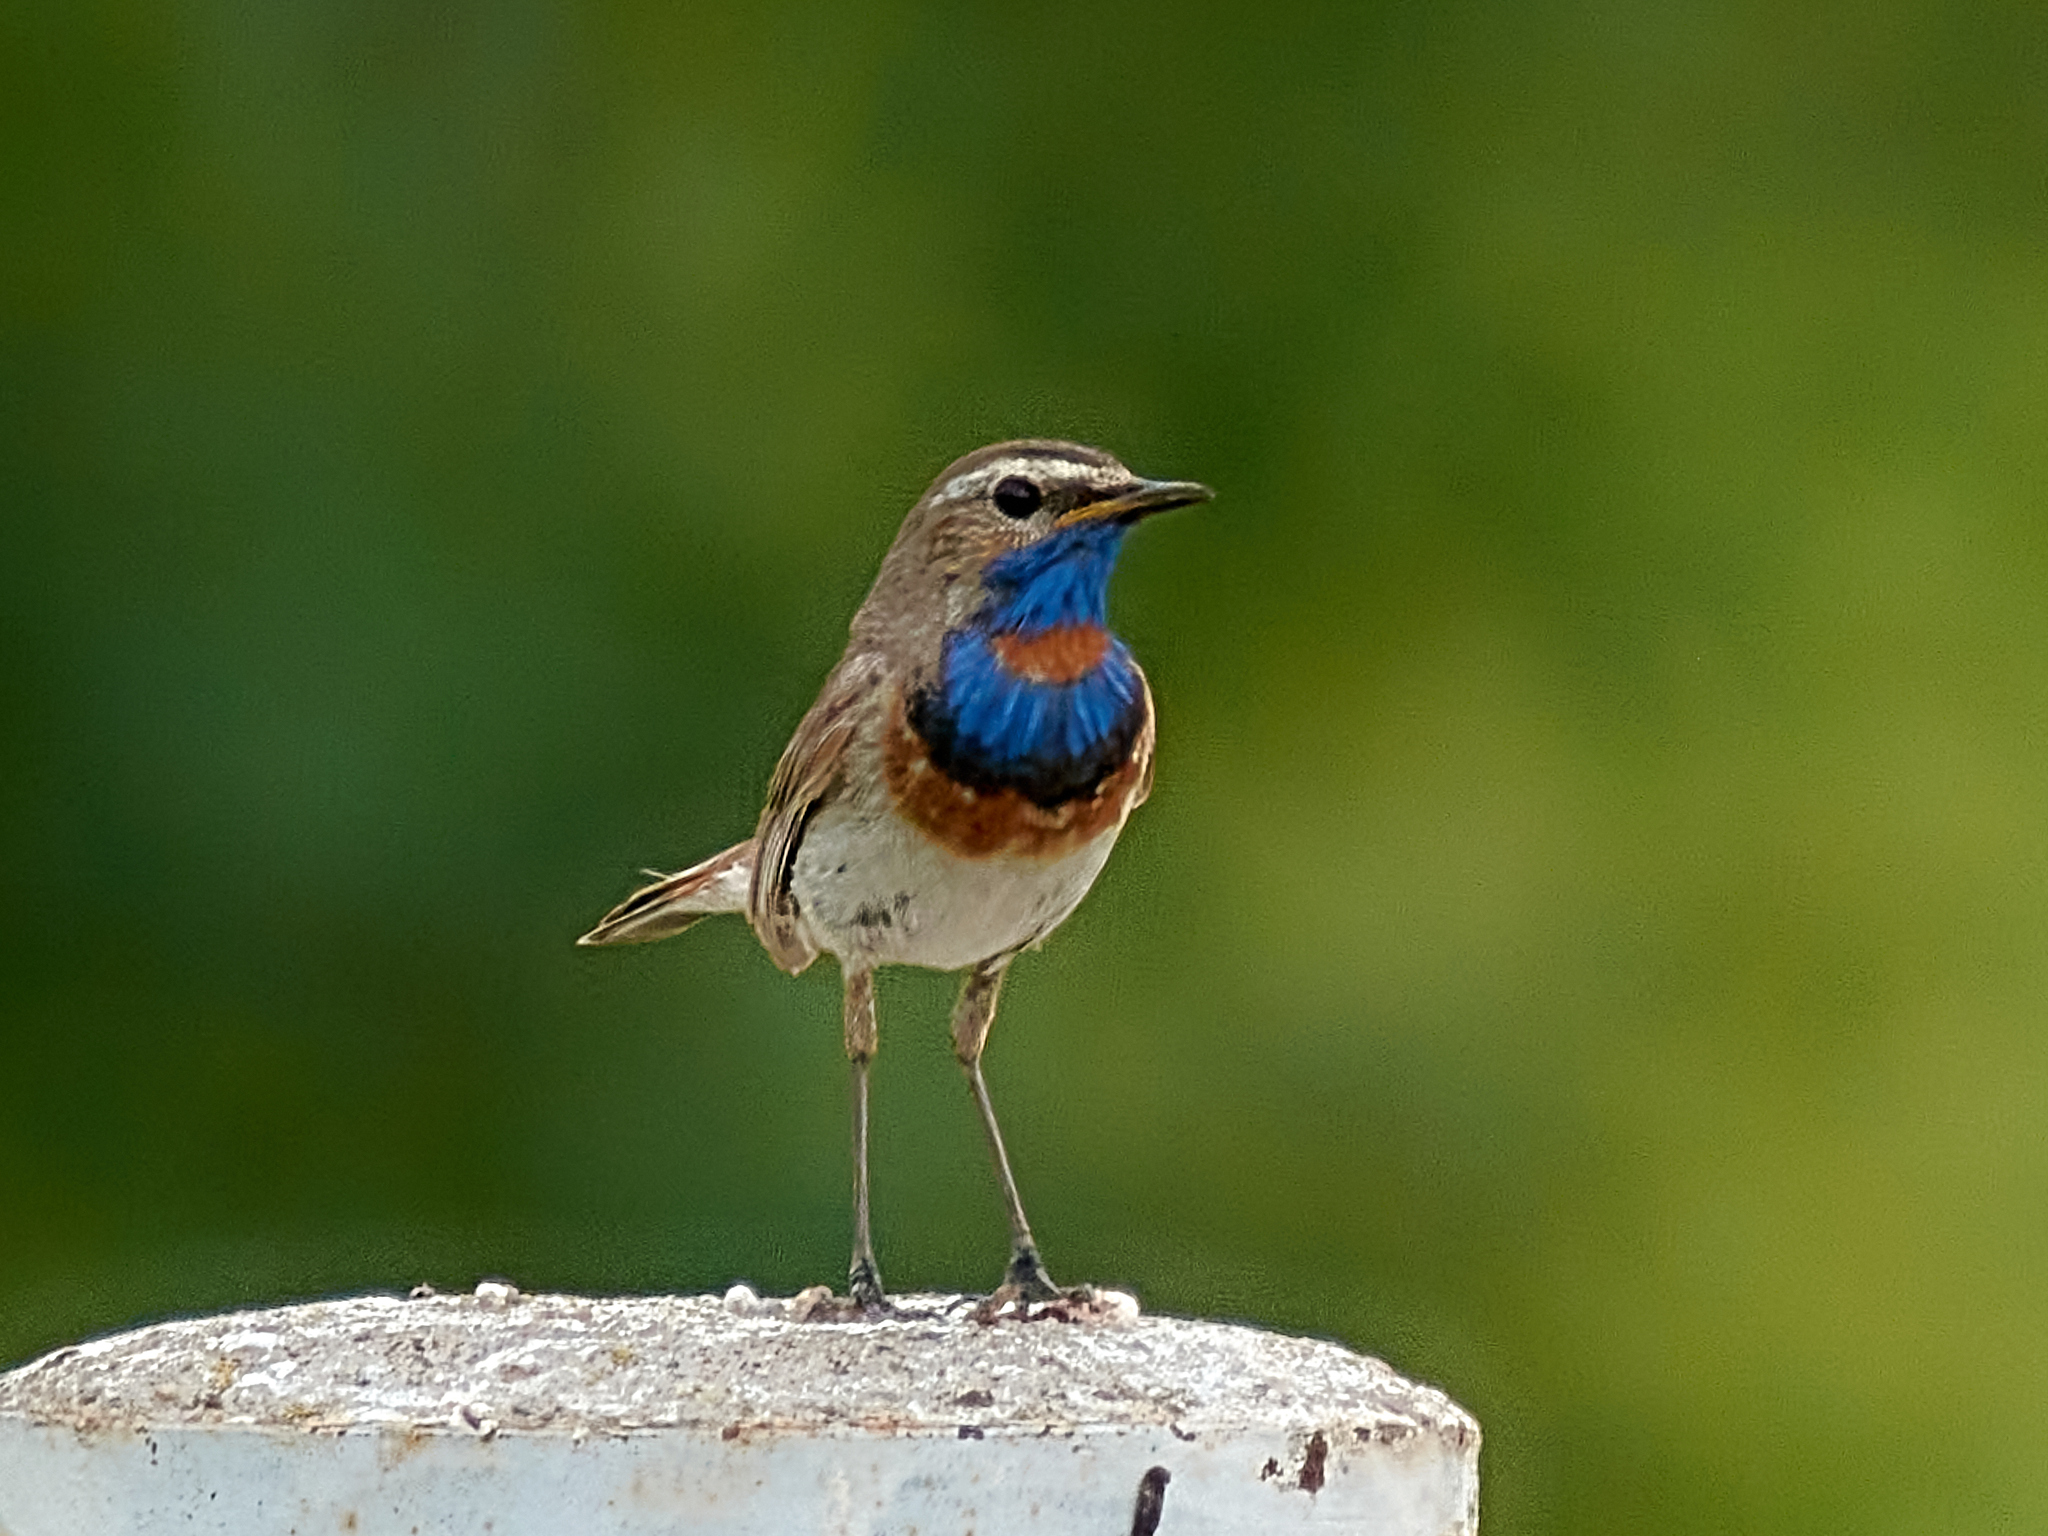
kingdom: Animalia
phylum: Chordata
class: Aves
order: Passeriformes
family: Muscicapidae
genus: Luscinia
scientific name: Luscinia svecica
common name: Bluethroat
